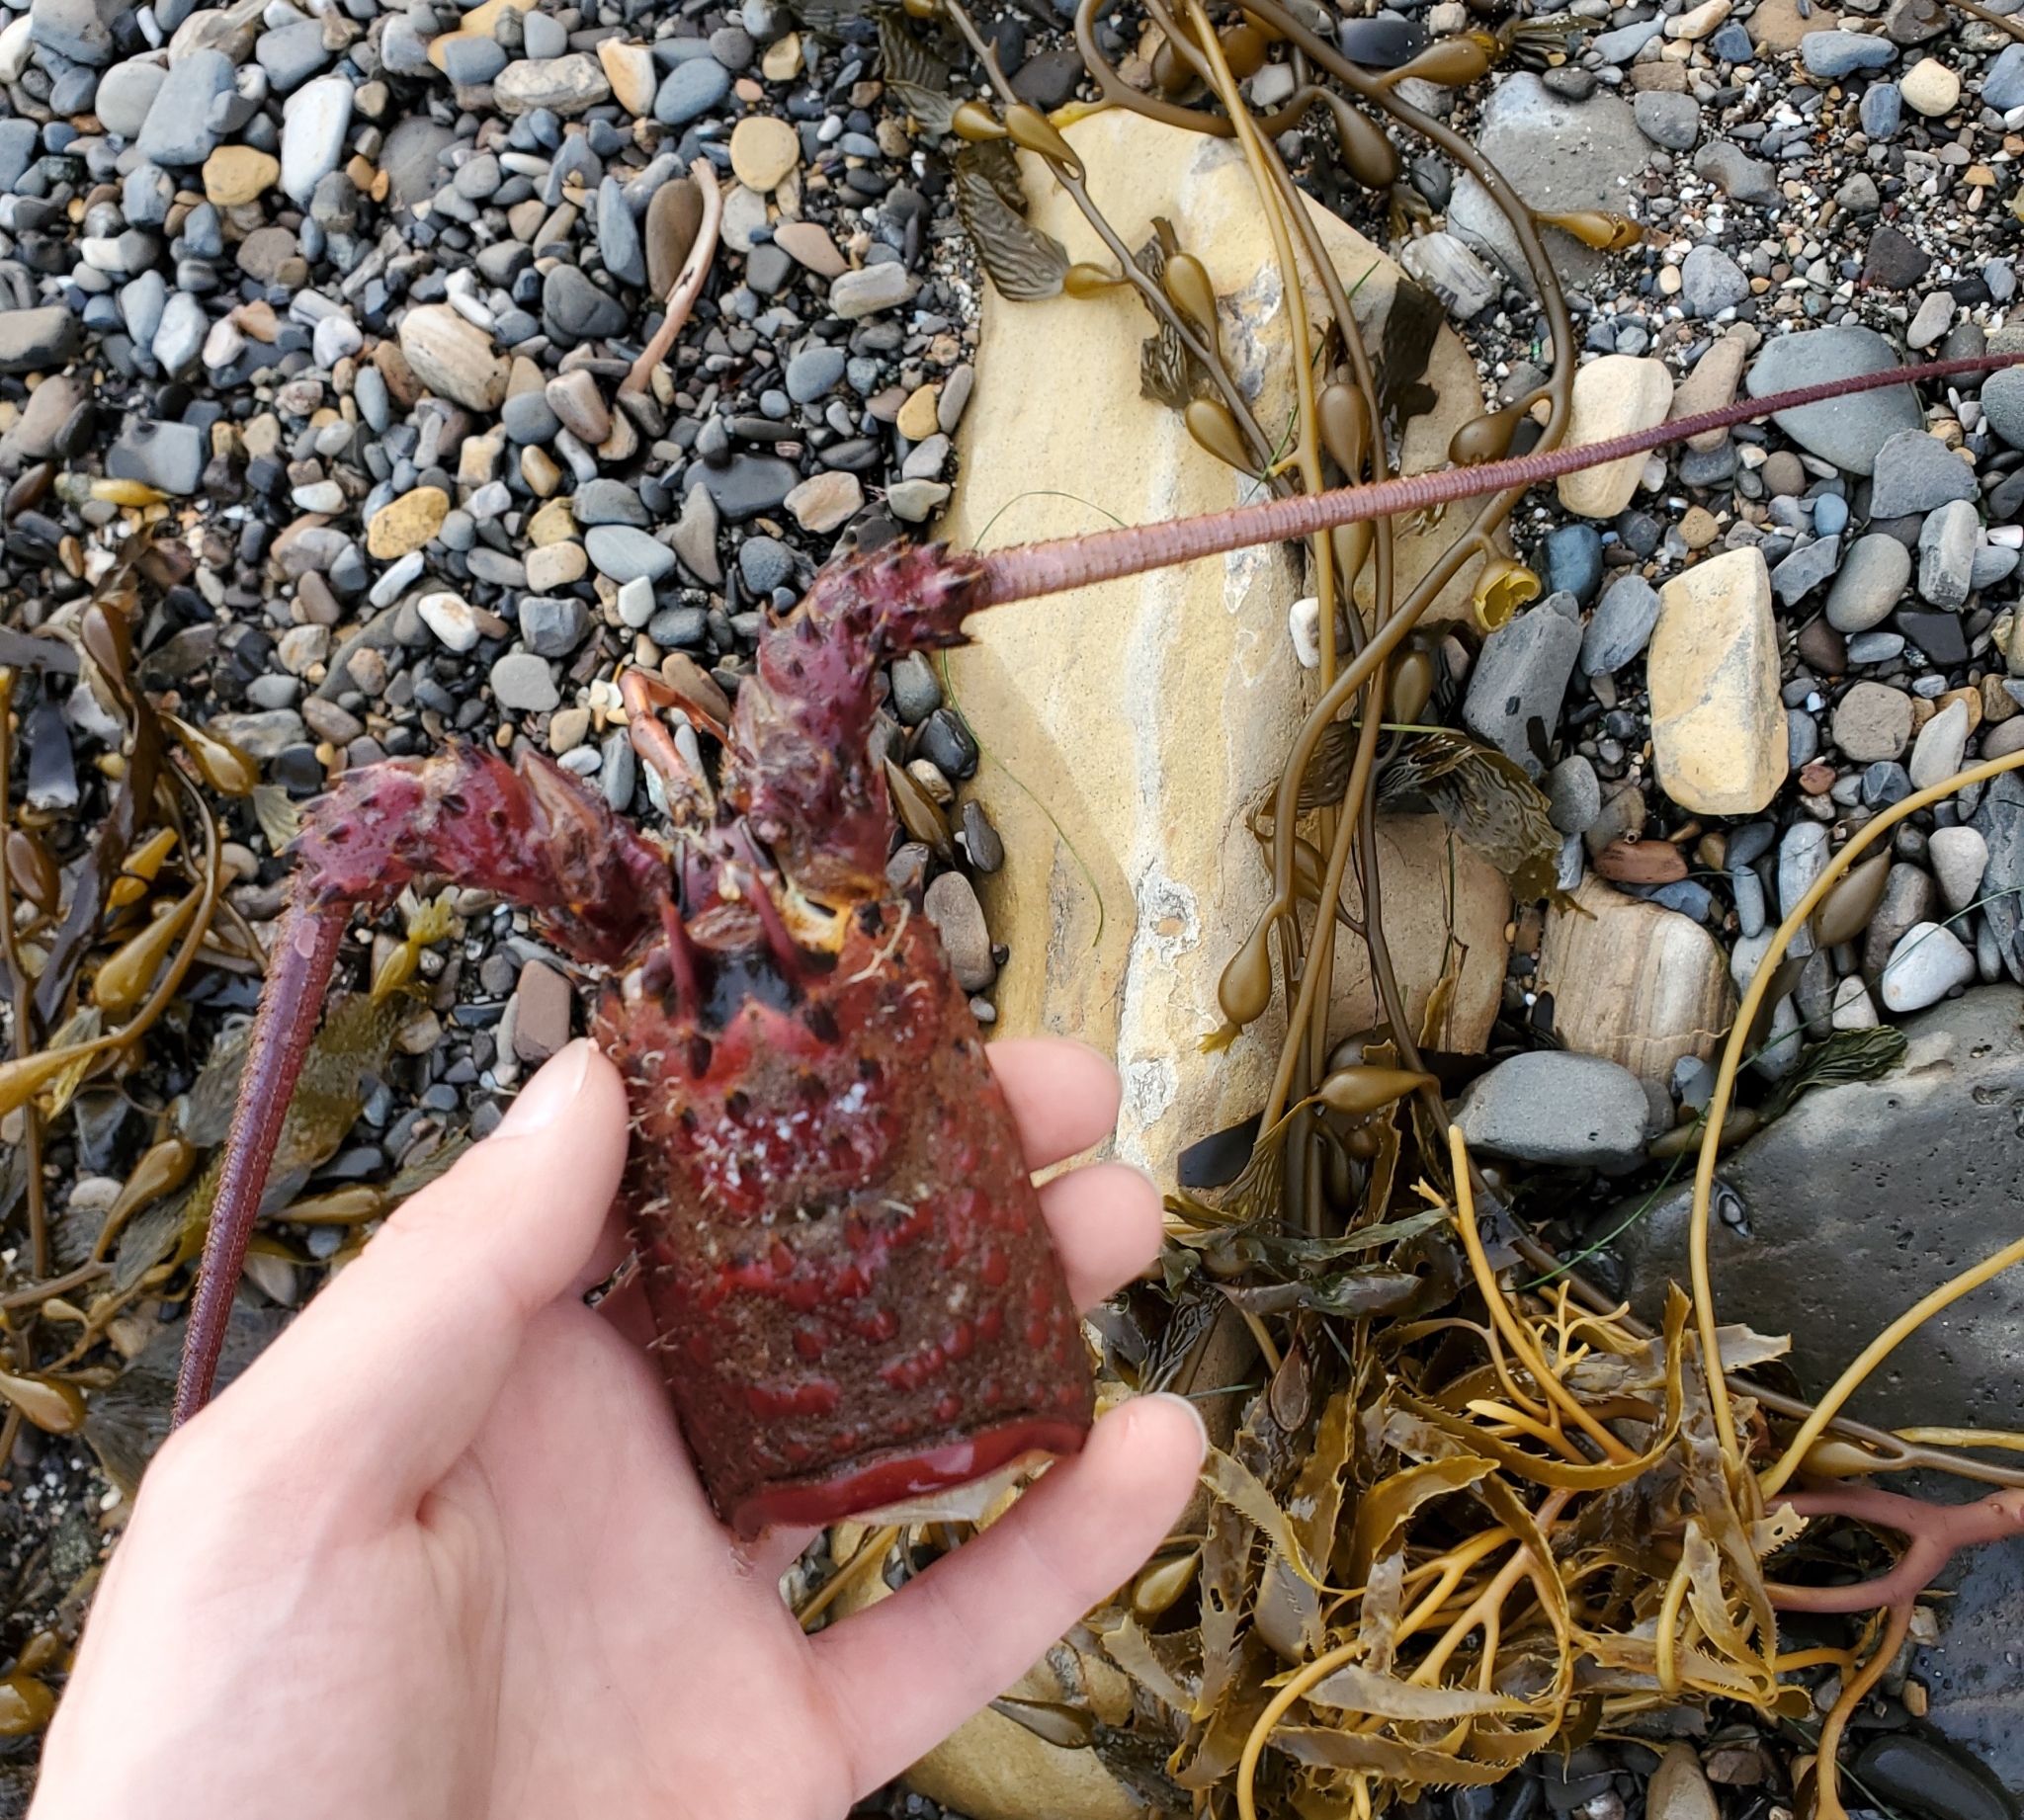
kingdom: Animalia
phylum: Arthropoda
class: Malacostraca
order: Decapoda
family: Palinuridae
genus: Panulirus
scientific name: Panulirus interruptus
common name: California spiny lobster
